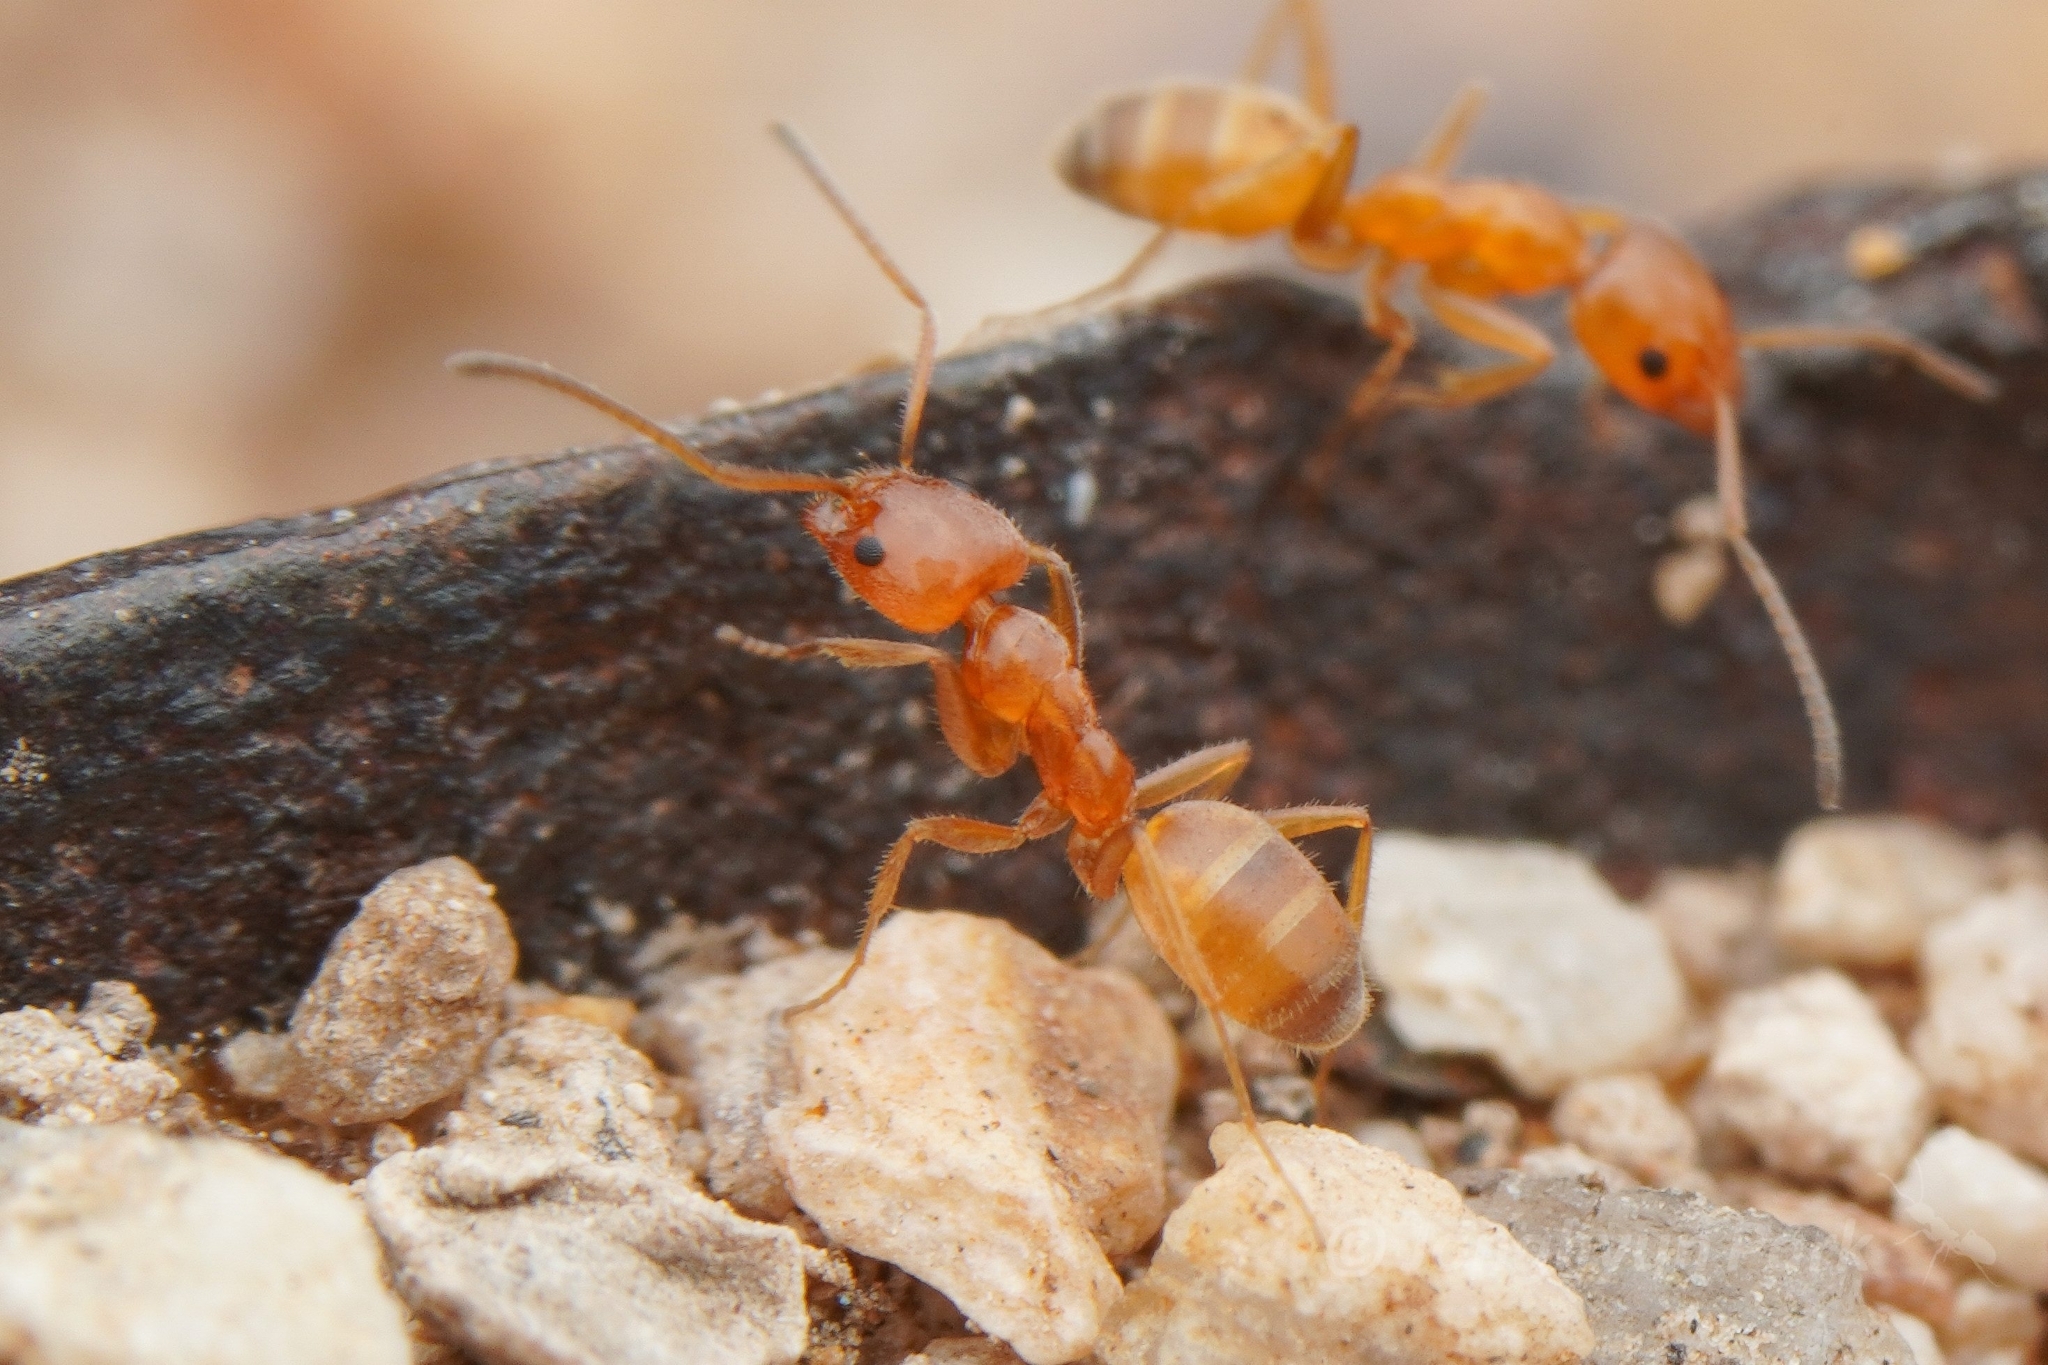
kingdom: Animalia
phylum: Arthropoda
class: Insecta
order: Hymenoptera
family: Formicidae
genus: Forelius
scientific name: Forelius mccooki
